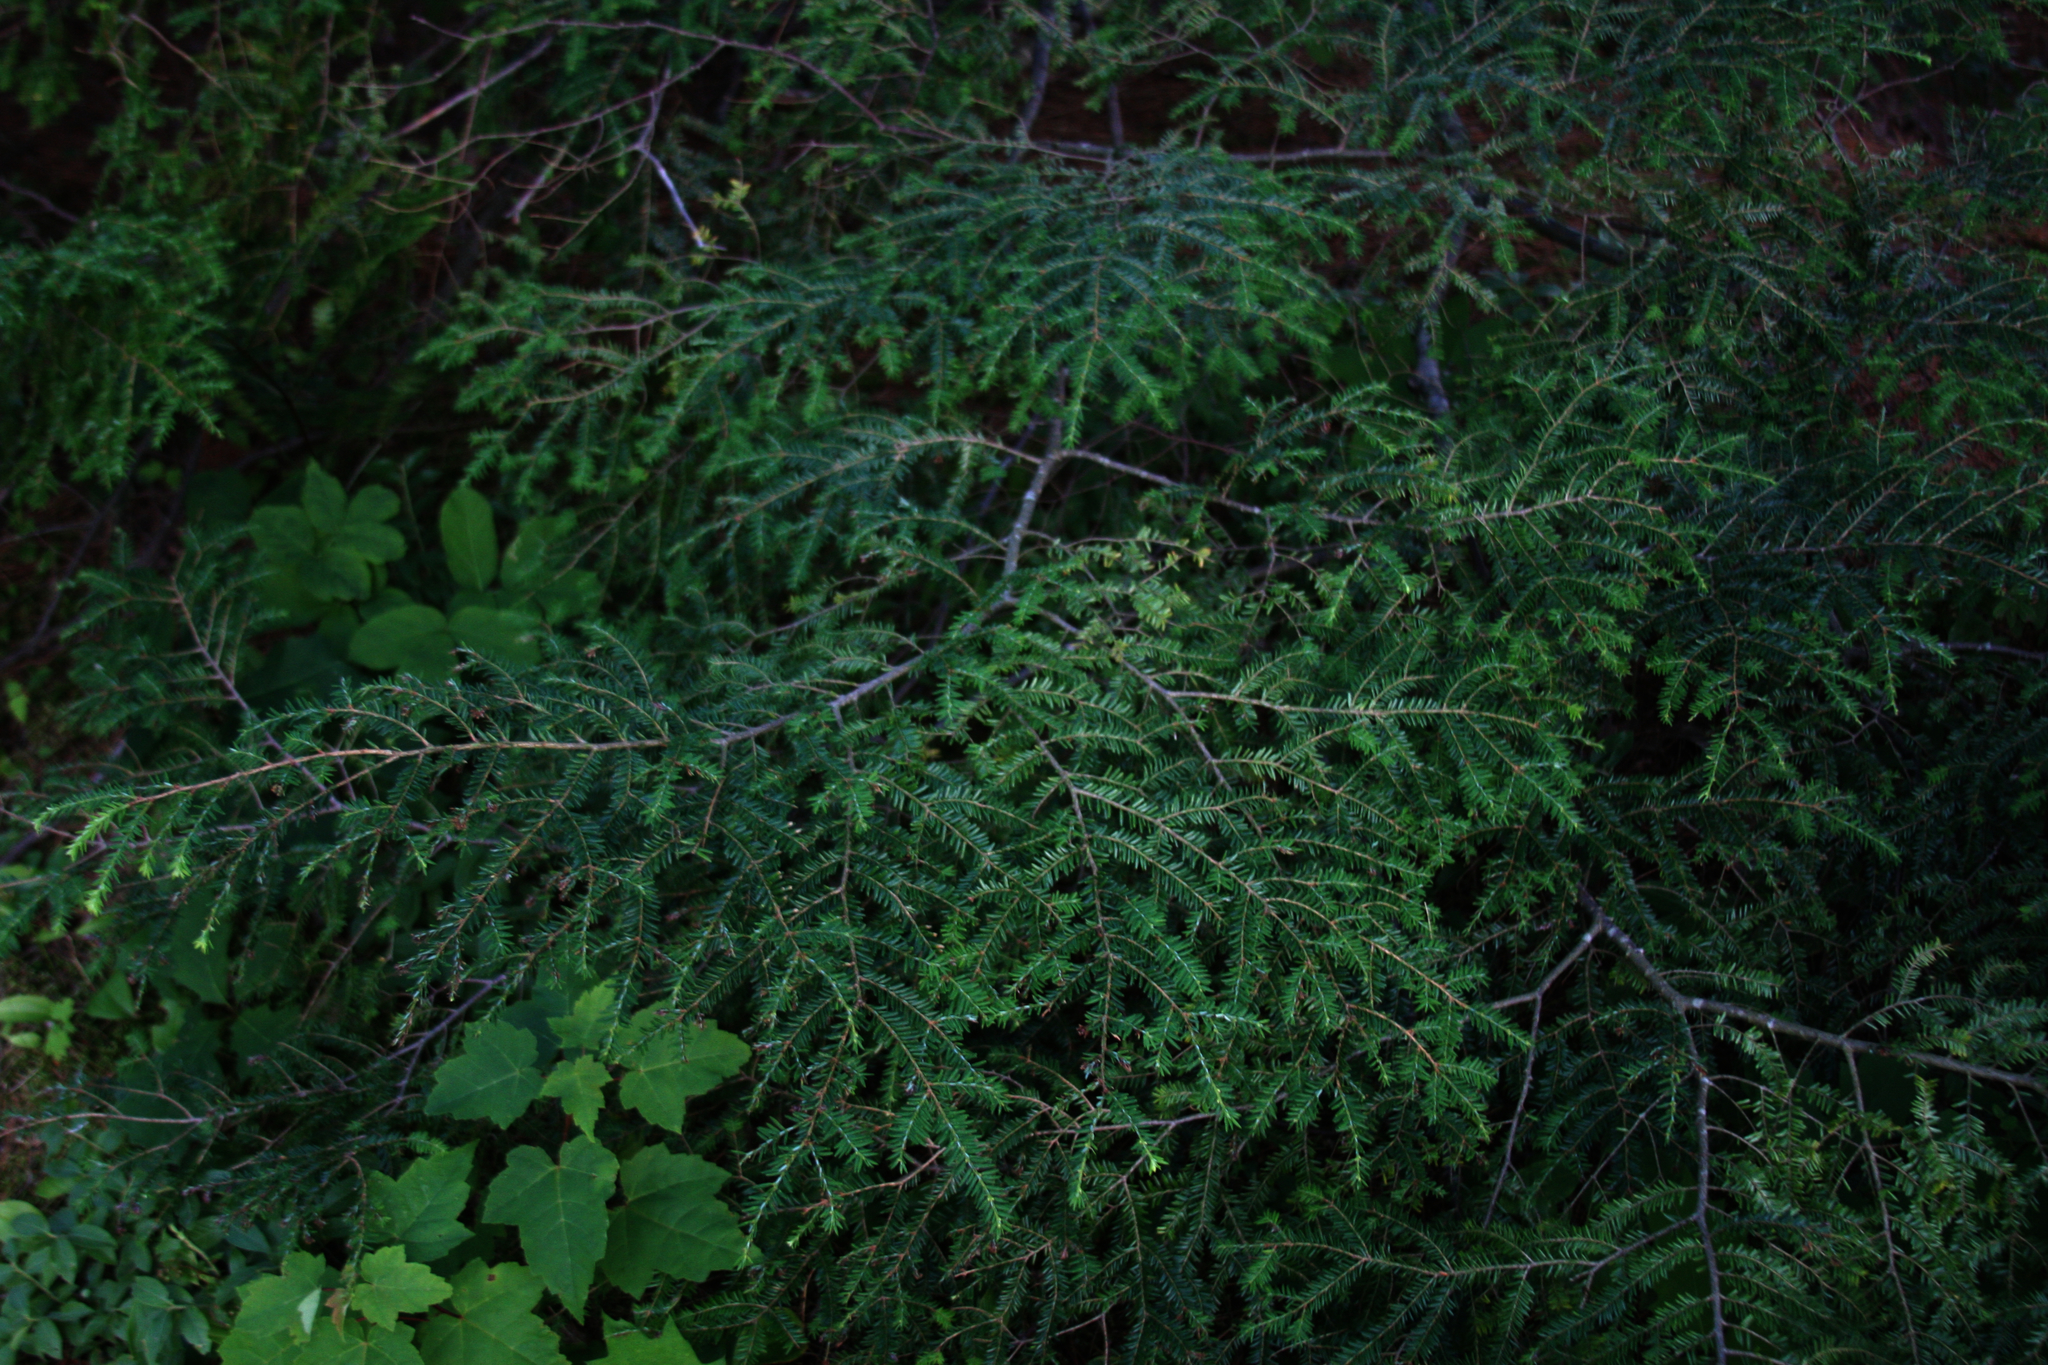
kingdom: Plantae
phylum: Tracheophyta
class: Pinopsida
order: Pinales
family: Pinaceae
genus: Tsuga
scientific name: Tsuga canadensis
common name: Eastern hemlock
